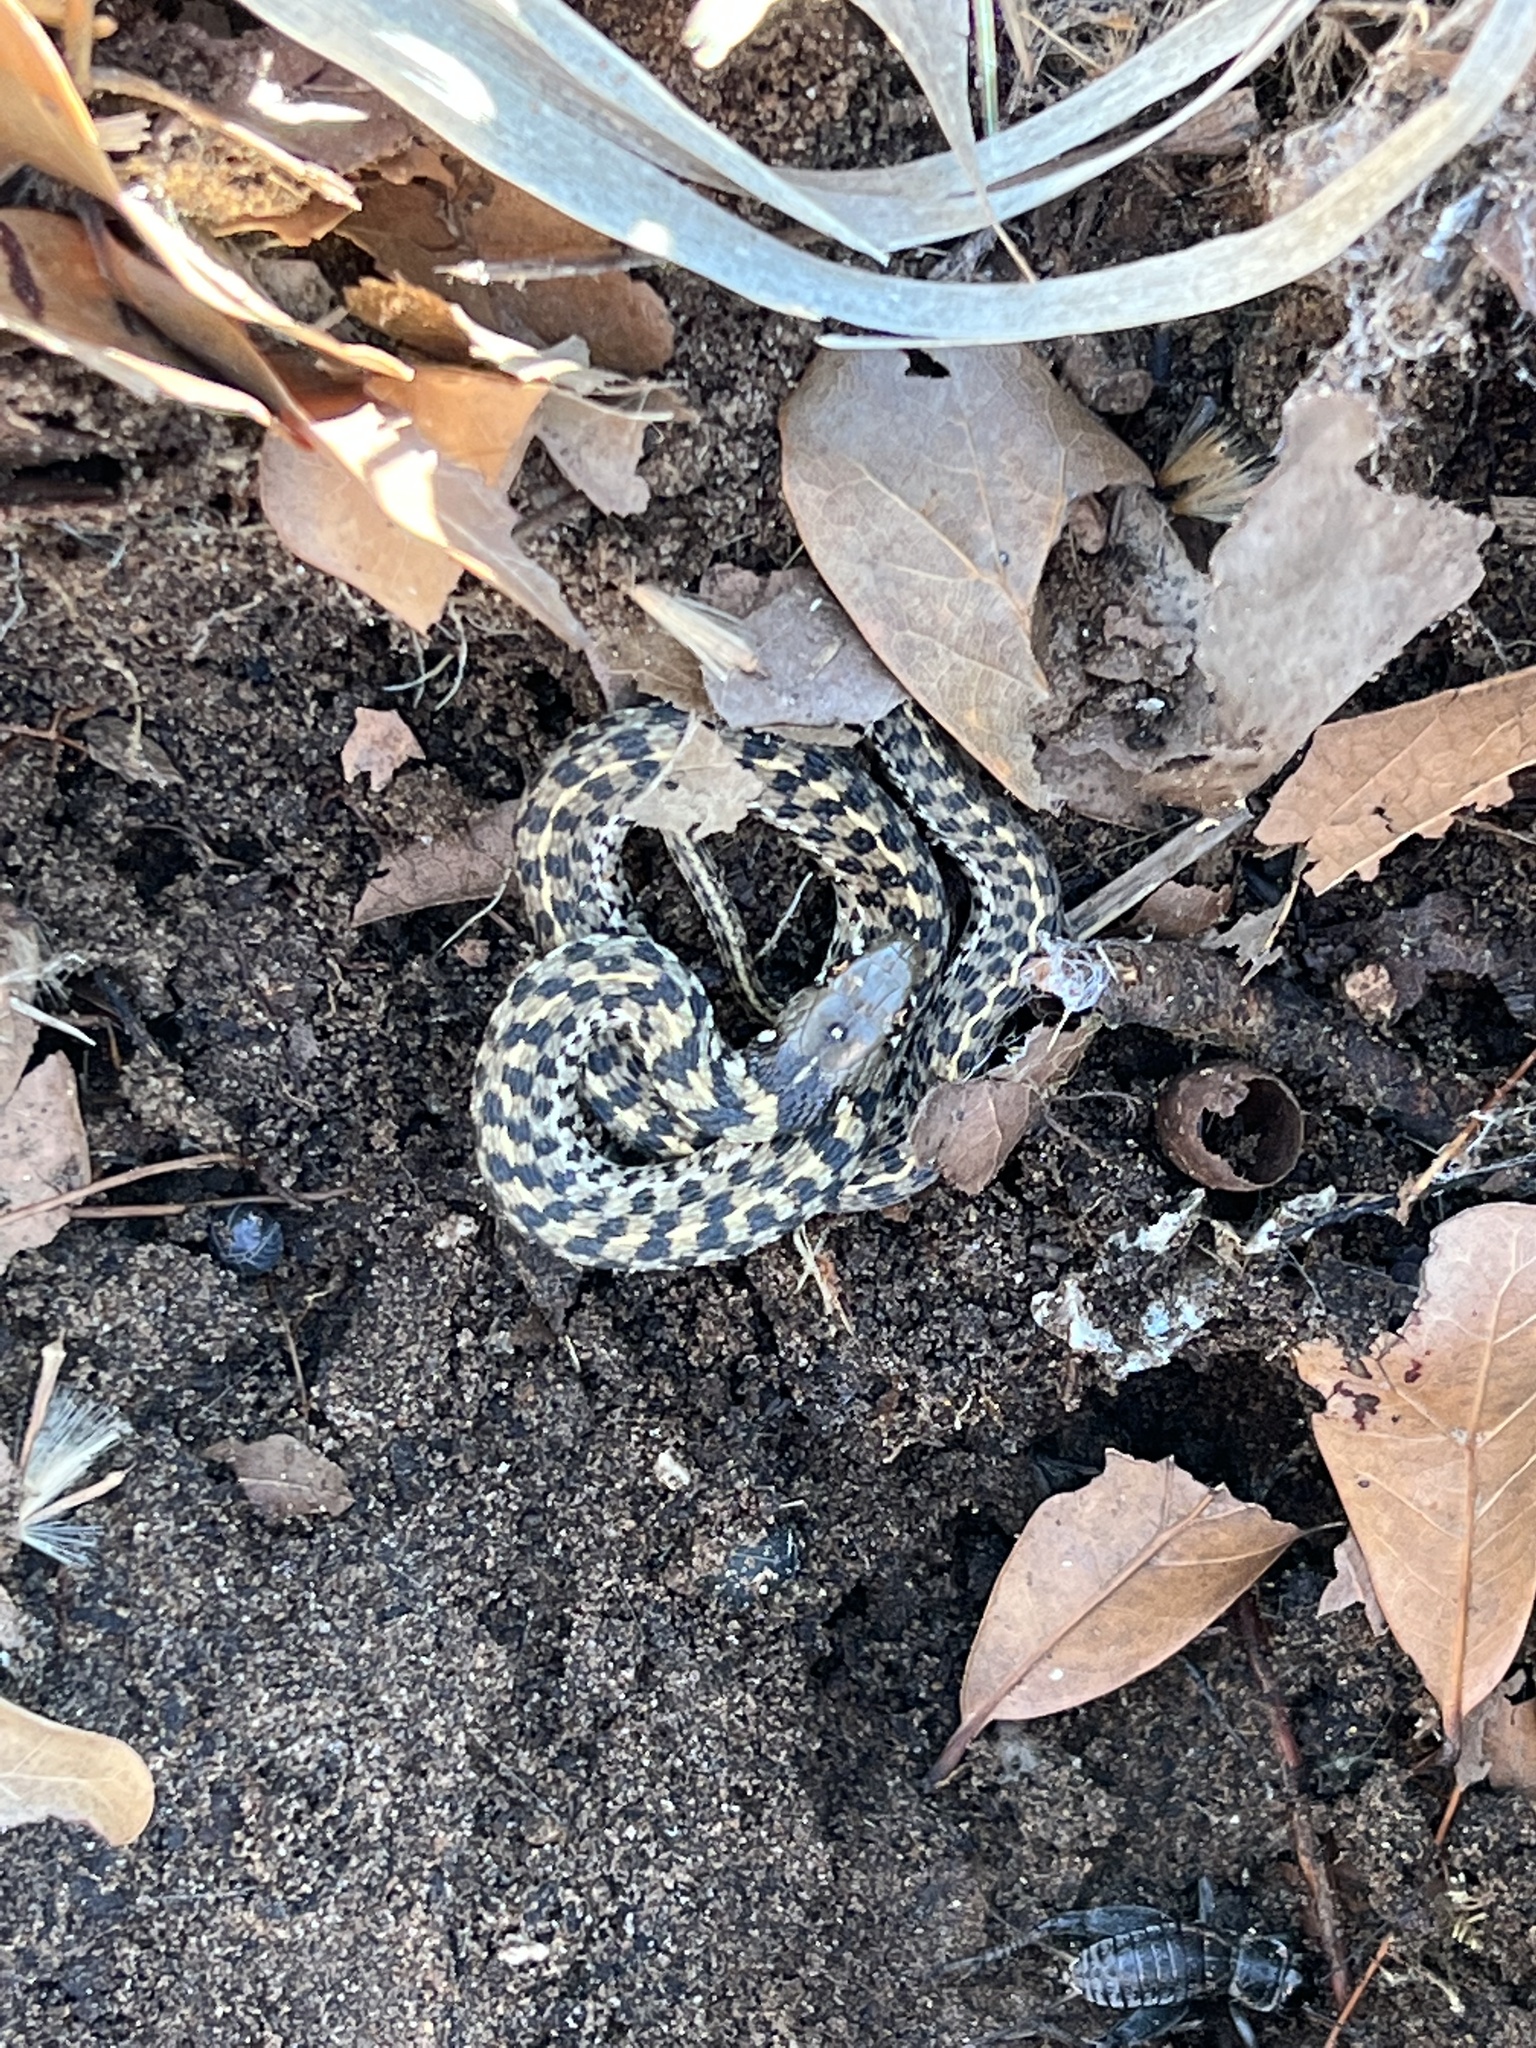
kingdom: Animalia
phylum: Chordata
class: Squamata
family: Colubridae
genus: Thamnophis
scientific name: Thamnophis marcianus
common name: Checkered garter snake
